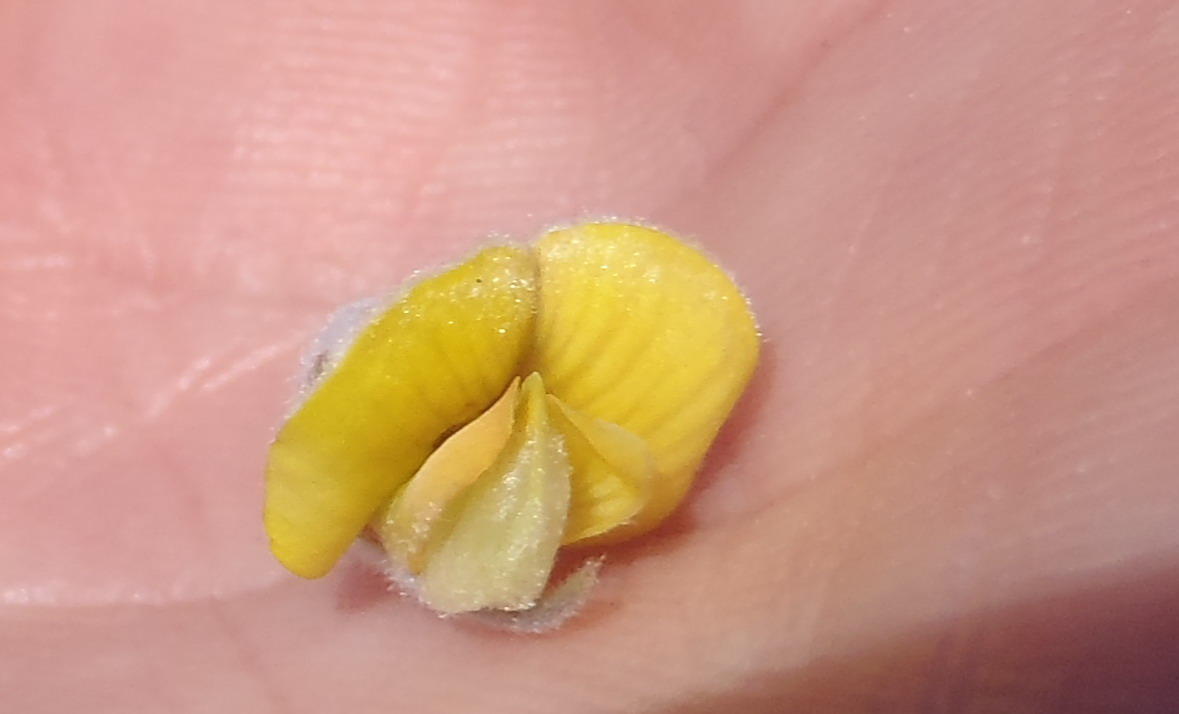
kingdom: Plantae
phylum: Tracheophyta
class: Magnoliopsida
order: Fabales
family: Fabaceae
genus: Aspalathus
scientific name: Aspalathus setacea
